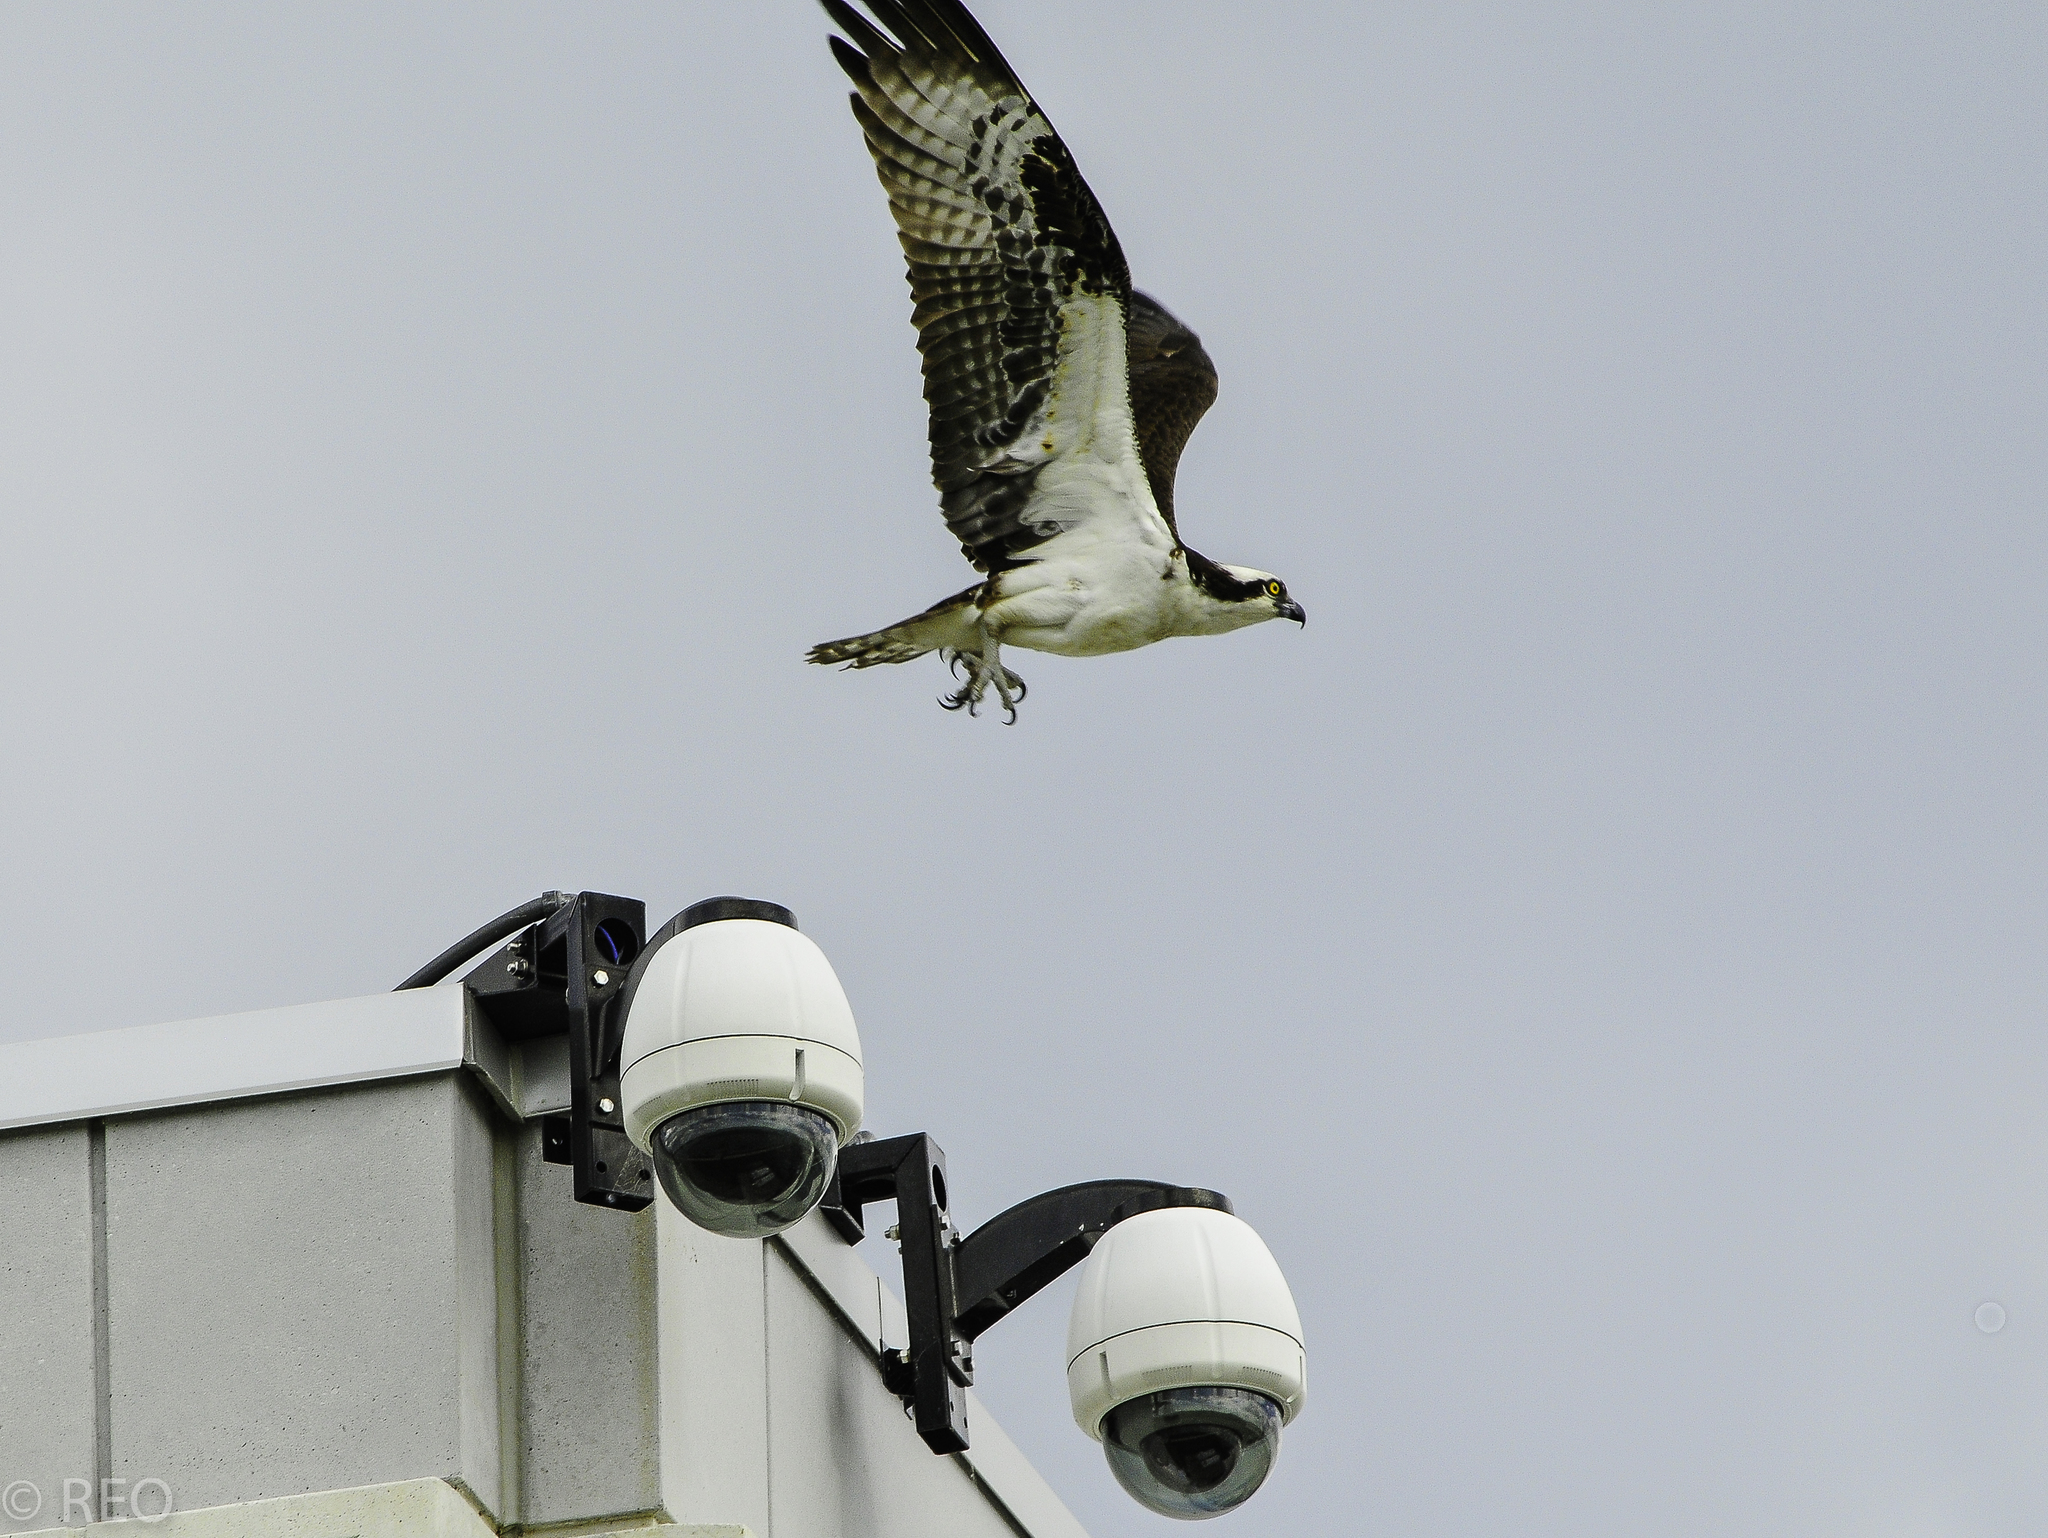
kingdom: Animalia
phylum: Chordata
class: Aves
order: Accipitriformes
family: Pandionidae
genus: Pandion
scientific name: Pandion haliaetus
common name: Osprey
